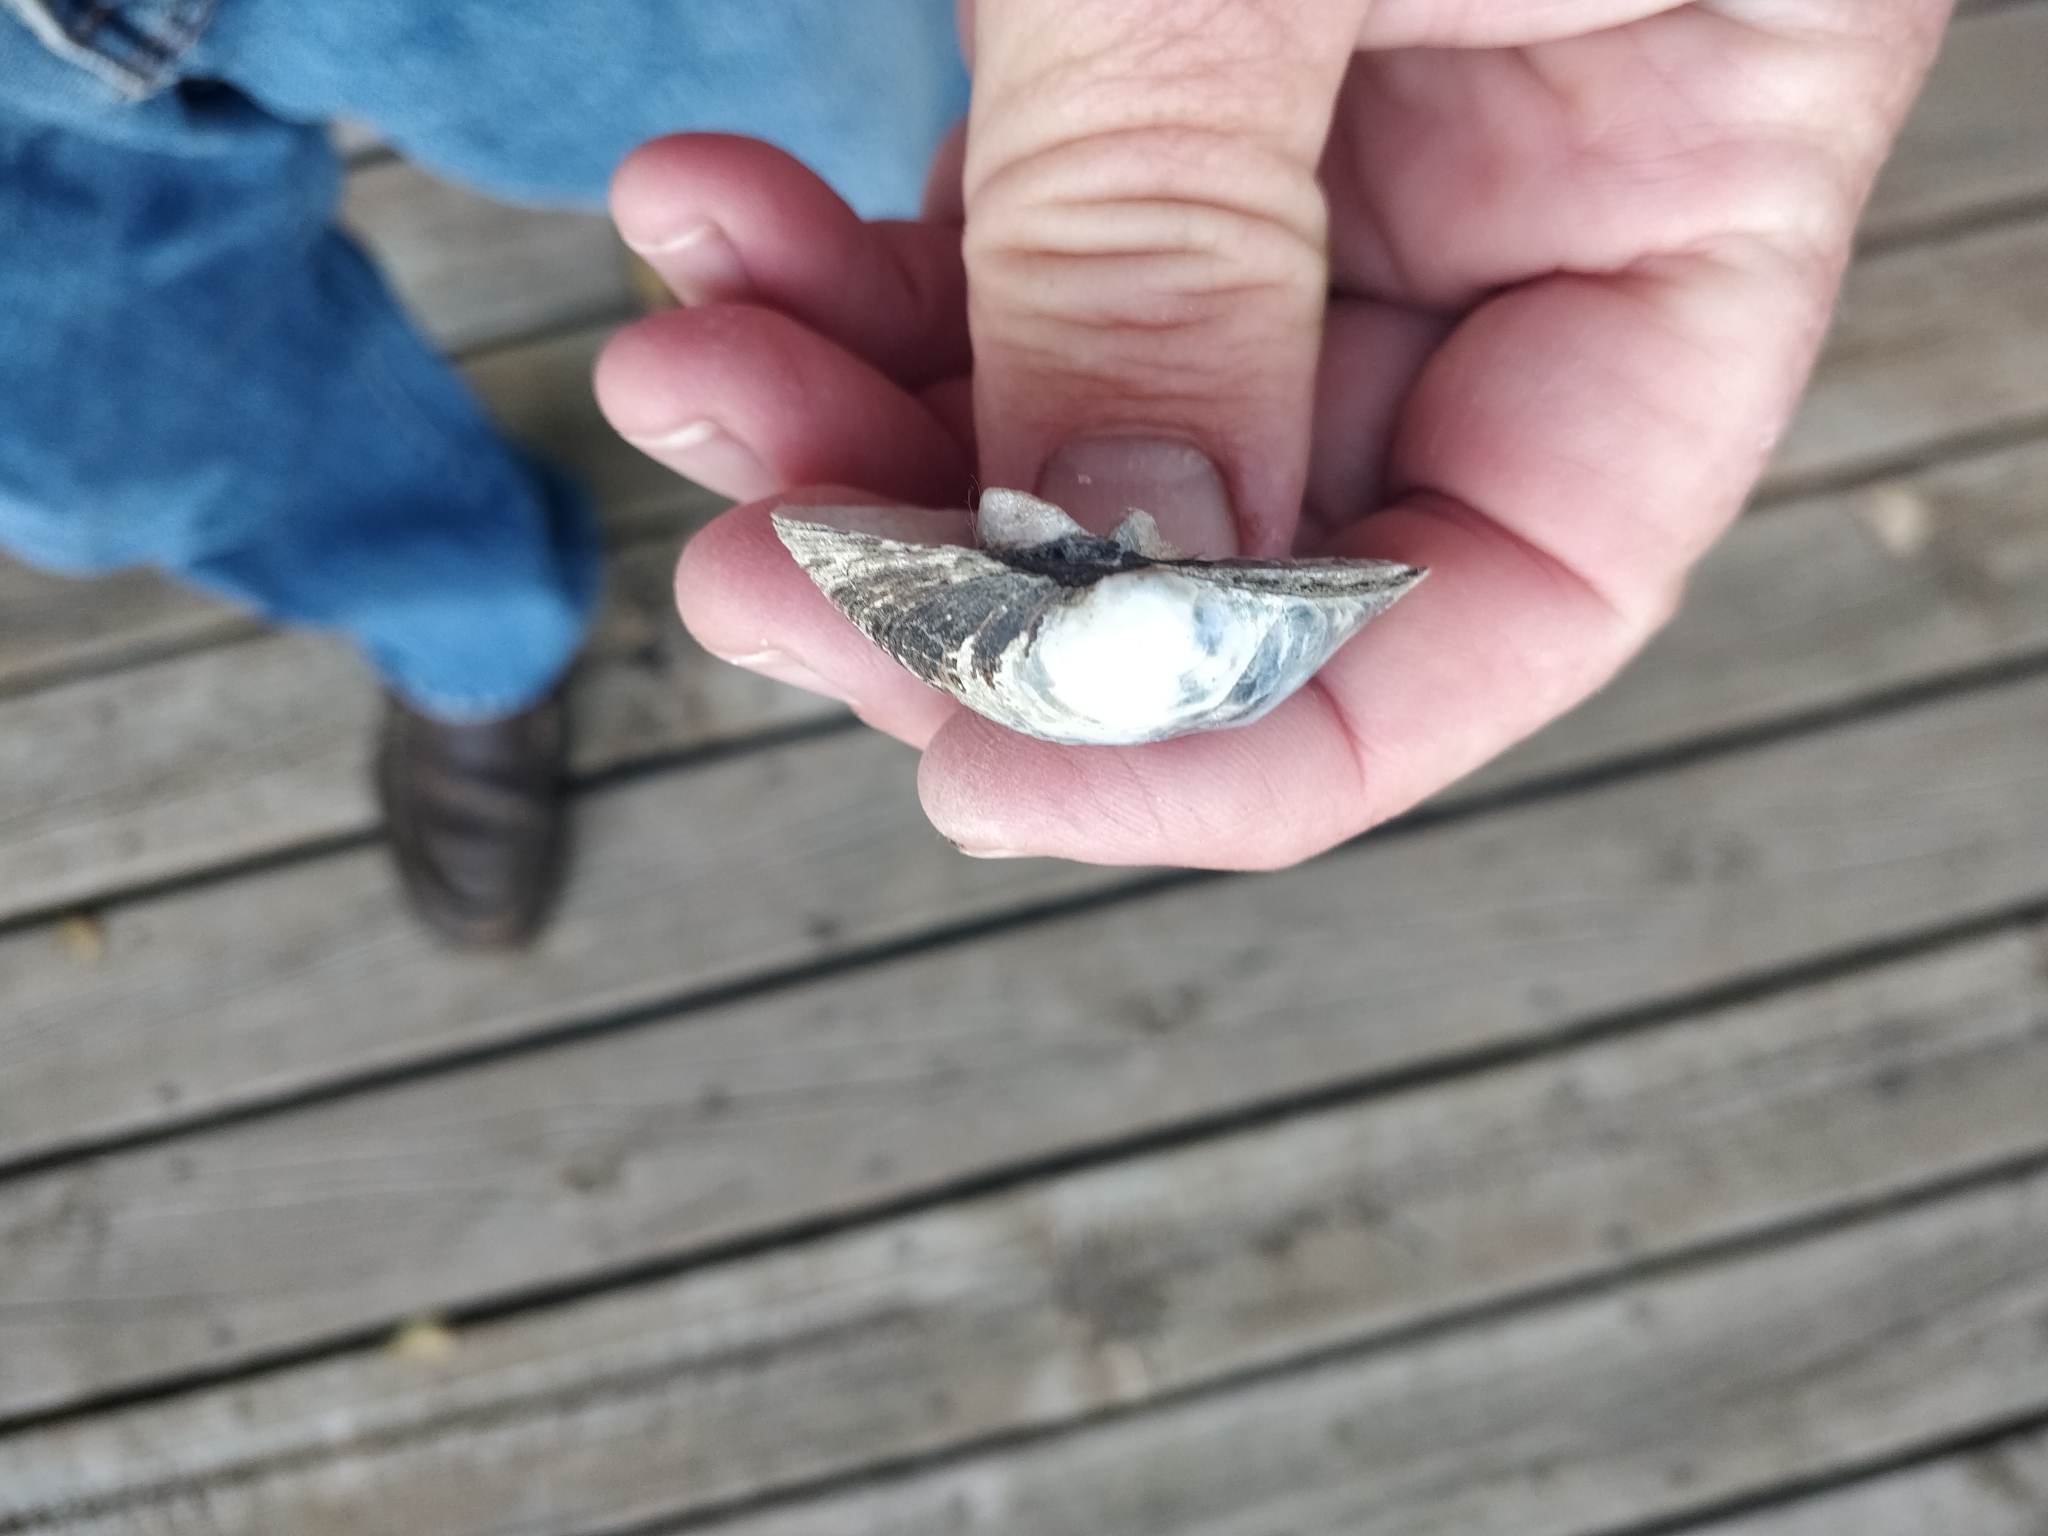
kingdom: Animalia
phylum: Mollusca
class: Bivalvia
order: Unionida
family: Unionidae
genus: Cyclonaias
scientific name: Cyclonaias pustulosa
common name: Pimpleback
